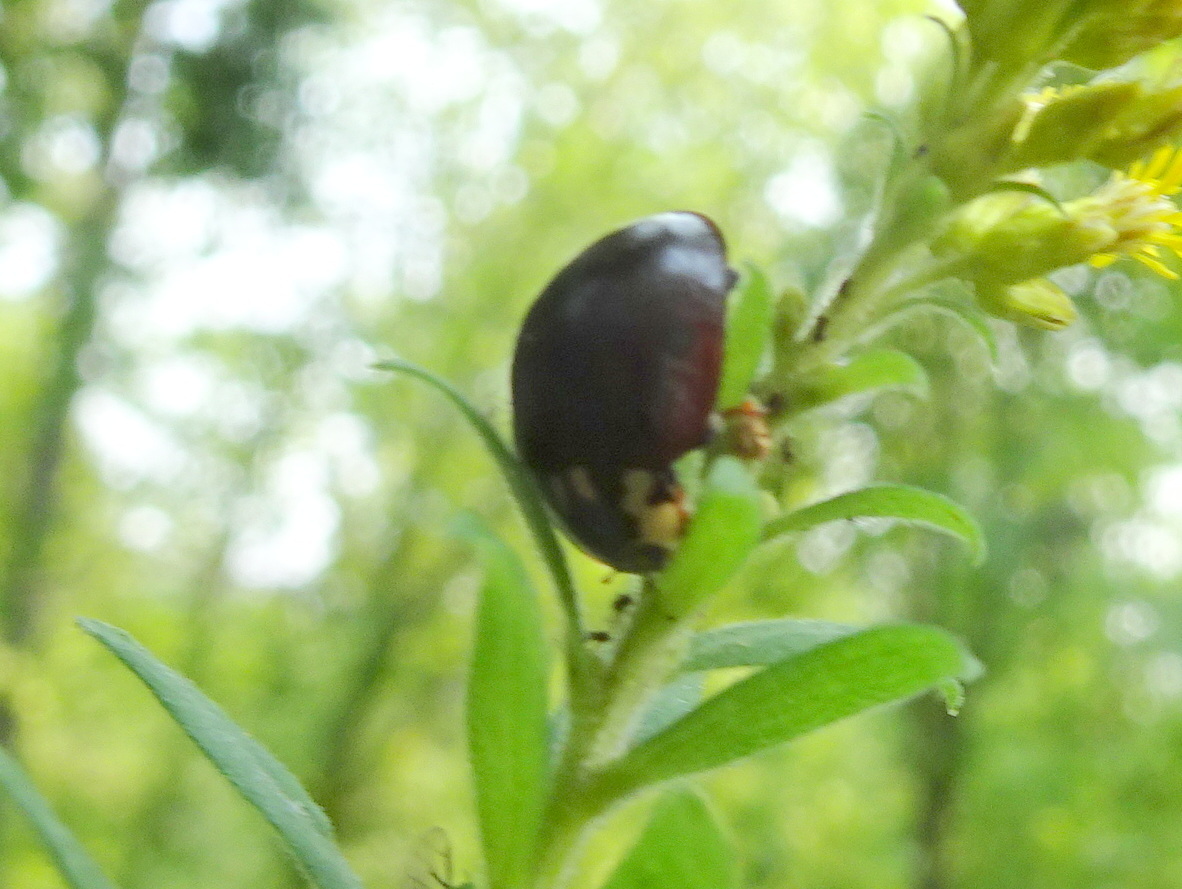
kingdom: Animalia
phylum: Arthropoda
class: Insecta
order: Coleoptera
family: Coccinellidae
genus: Anatis
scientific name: Anatis labiculata
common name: Fifteen-spotted lady beetle
